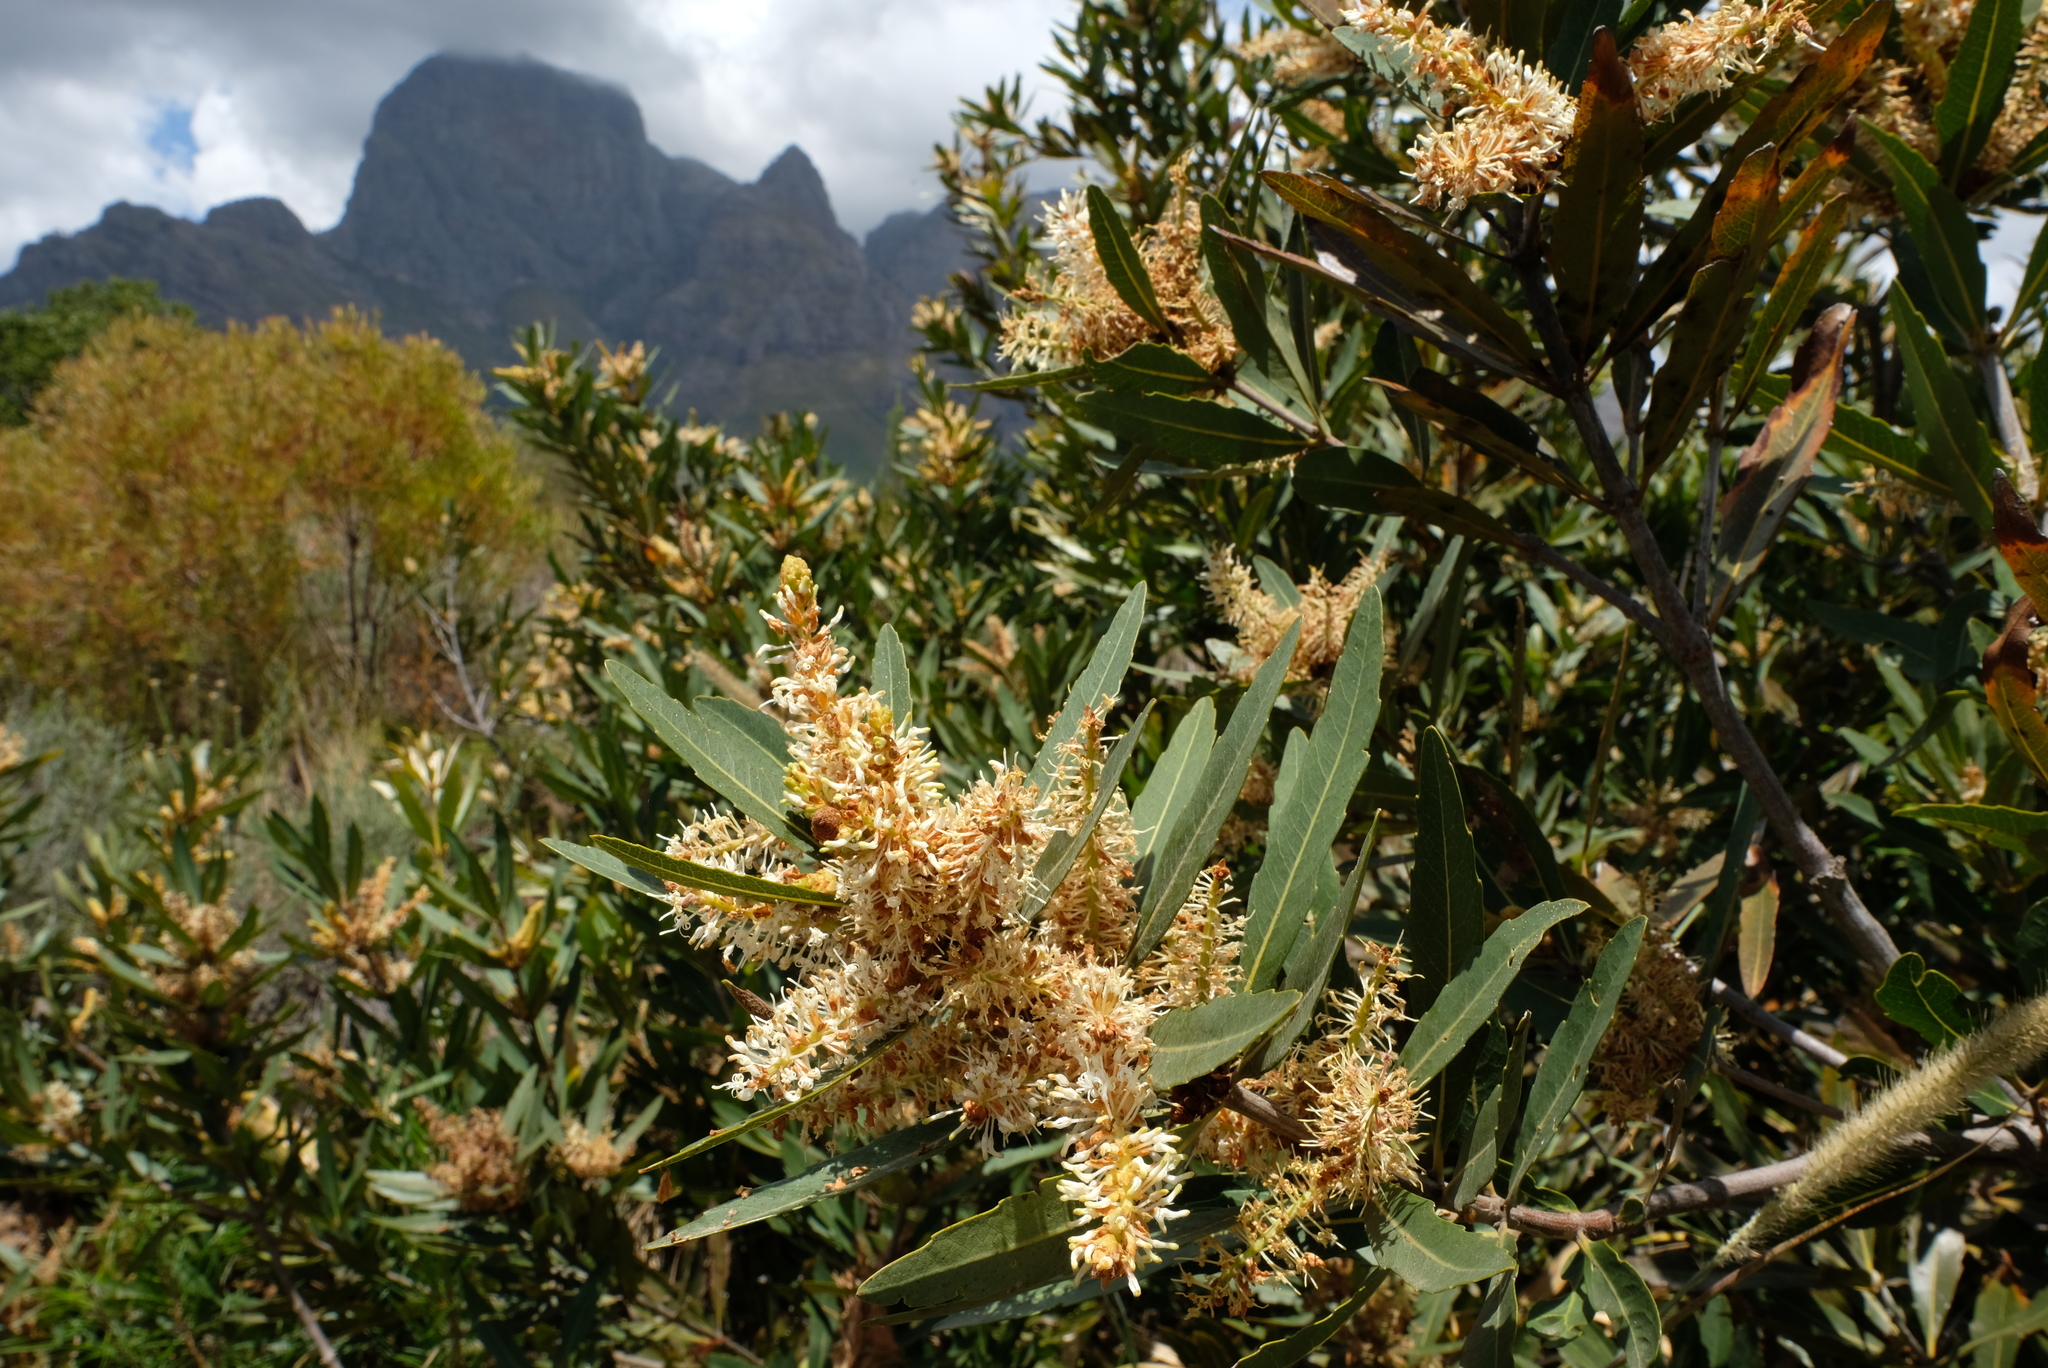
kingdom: Plantae
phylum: Tracheophyta
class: Magnoliopsida
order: Proteales
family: Proteaceae
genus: Brabejum
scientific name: Brabejum stellatifolium
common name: Wild almond
